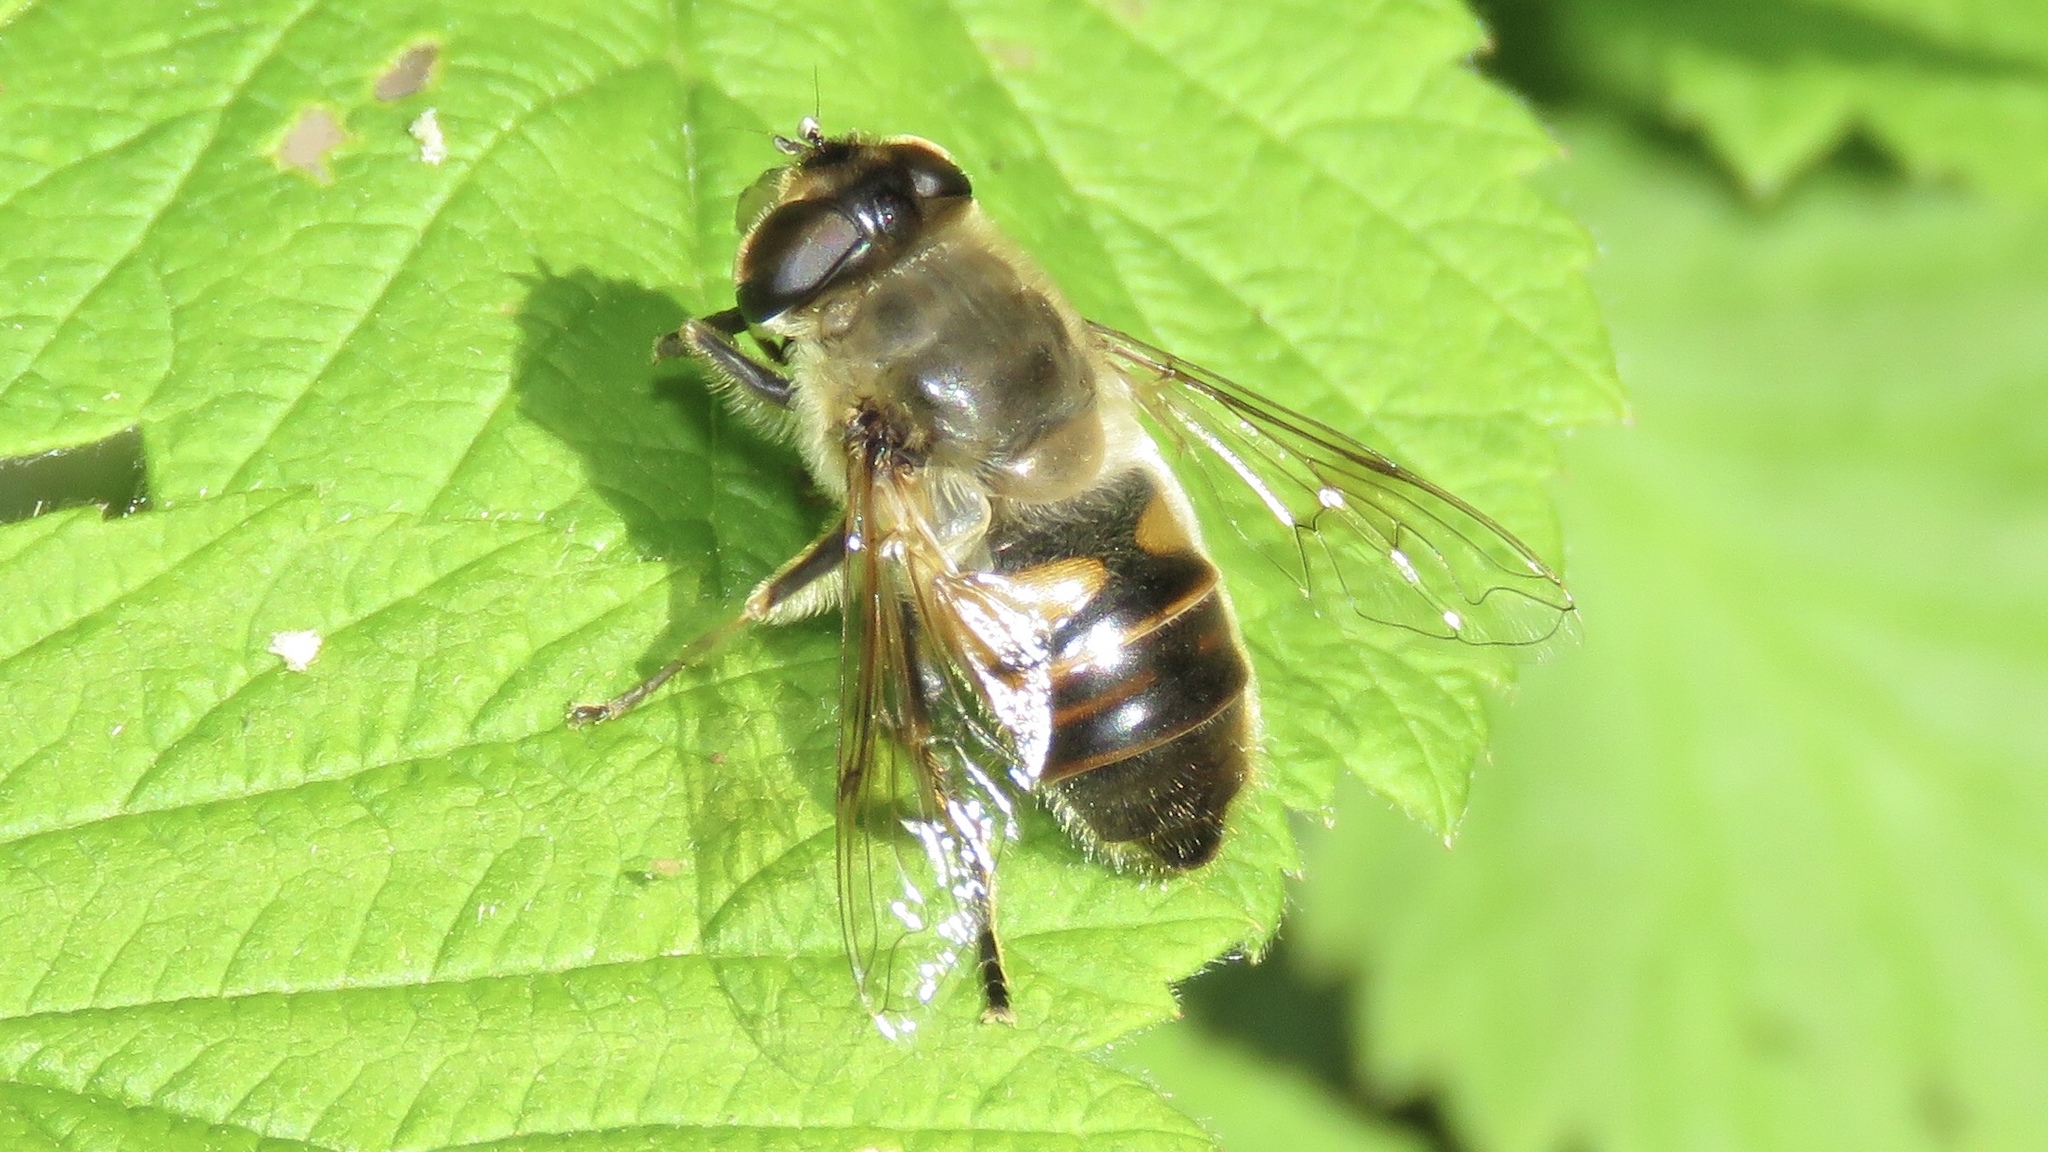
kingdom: Animalia
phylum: Arthropoda
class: Insecta
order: Diptera
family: Syrphidae
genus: Eristalis
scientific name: Eristalis tenax
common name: Drone fly
